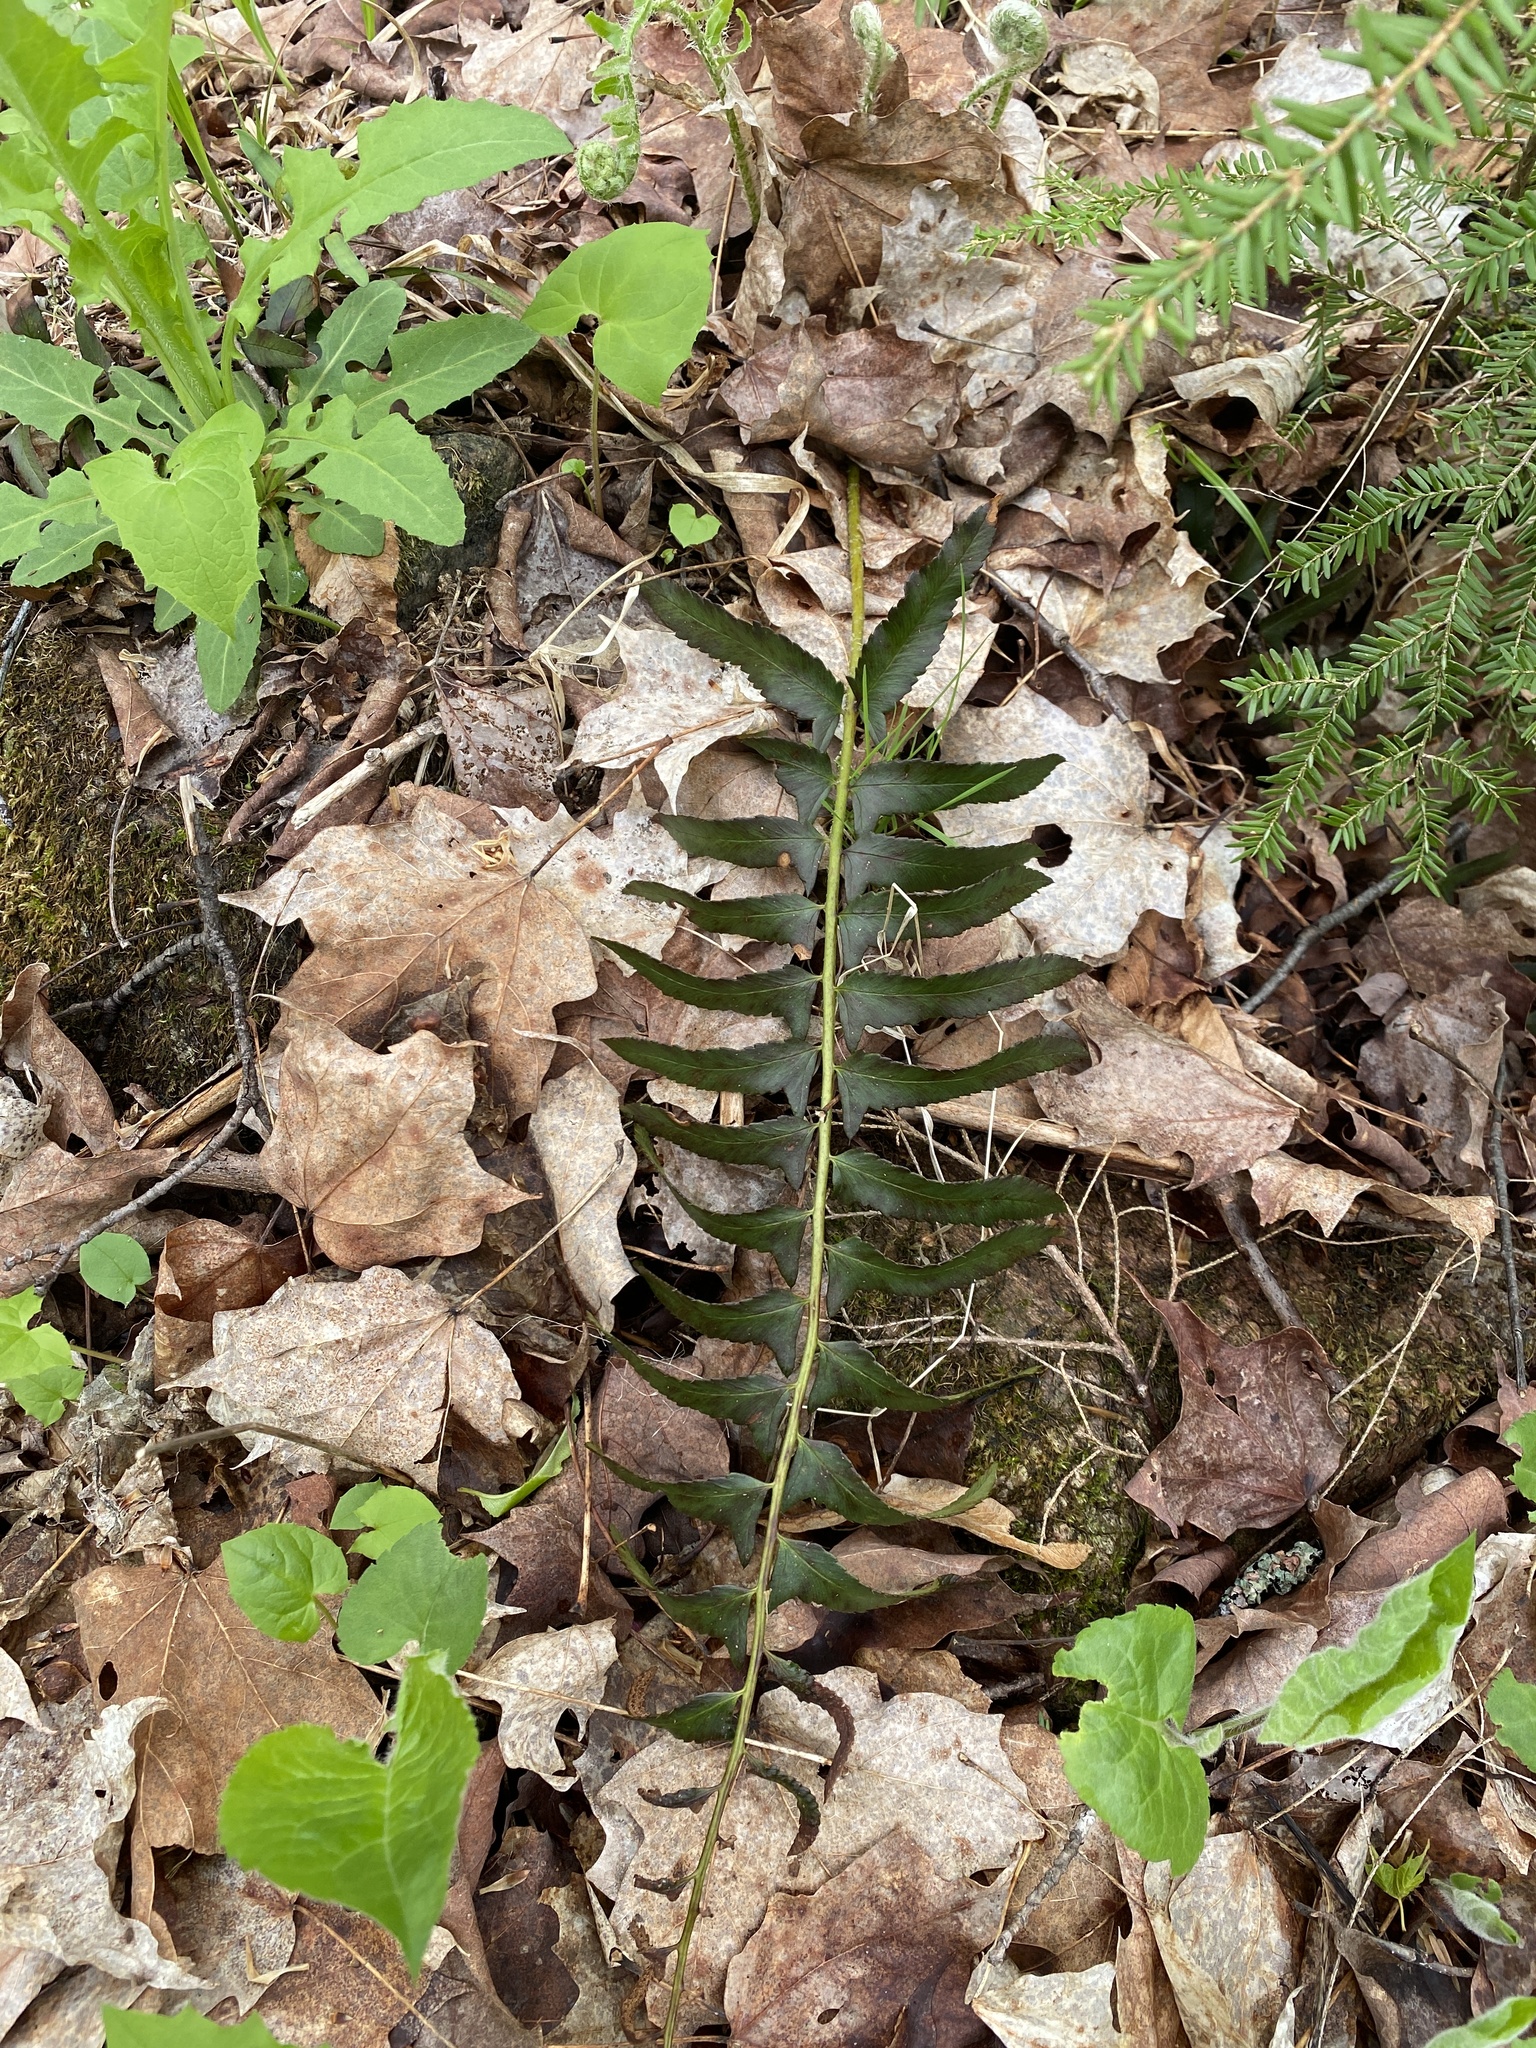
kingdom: Plantae
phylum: Tracheophyta
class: Polypodiopsida
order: Polypodiales
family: Dryopteridaceae
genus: Polystichum
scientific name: Polystichum acrostichoides
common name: Christmas fern
